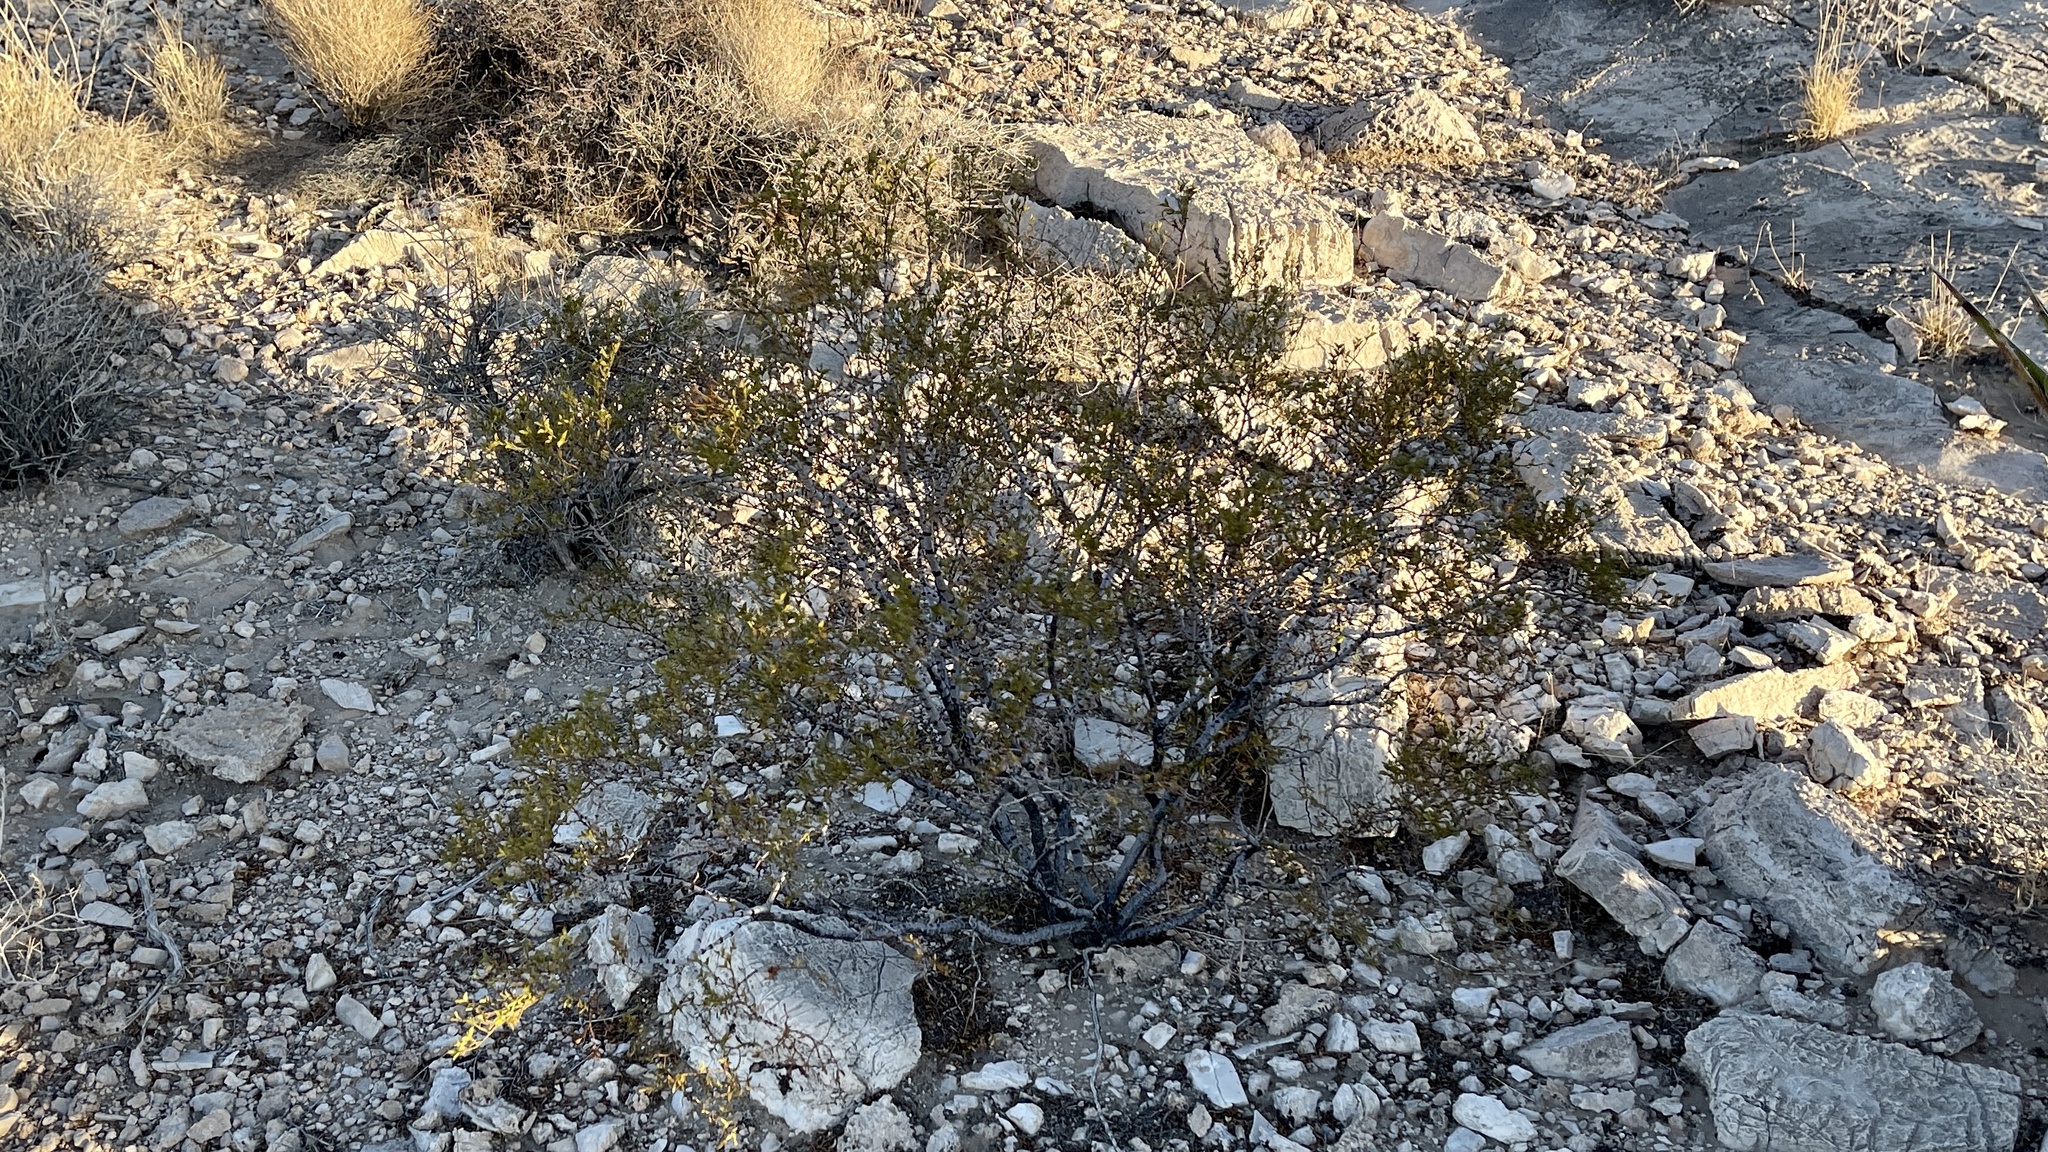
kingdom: Plantae
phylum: Tracheophyta
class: Magnoliopsida
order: Zygophyllales
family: Zygophyllaceae
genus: Larrea
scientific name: Larrea tridentata
